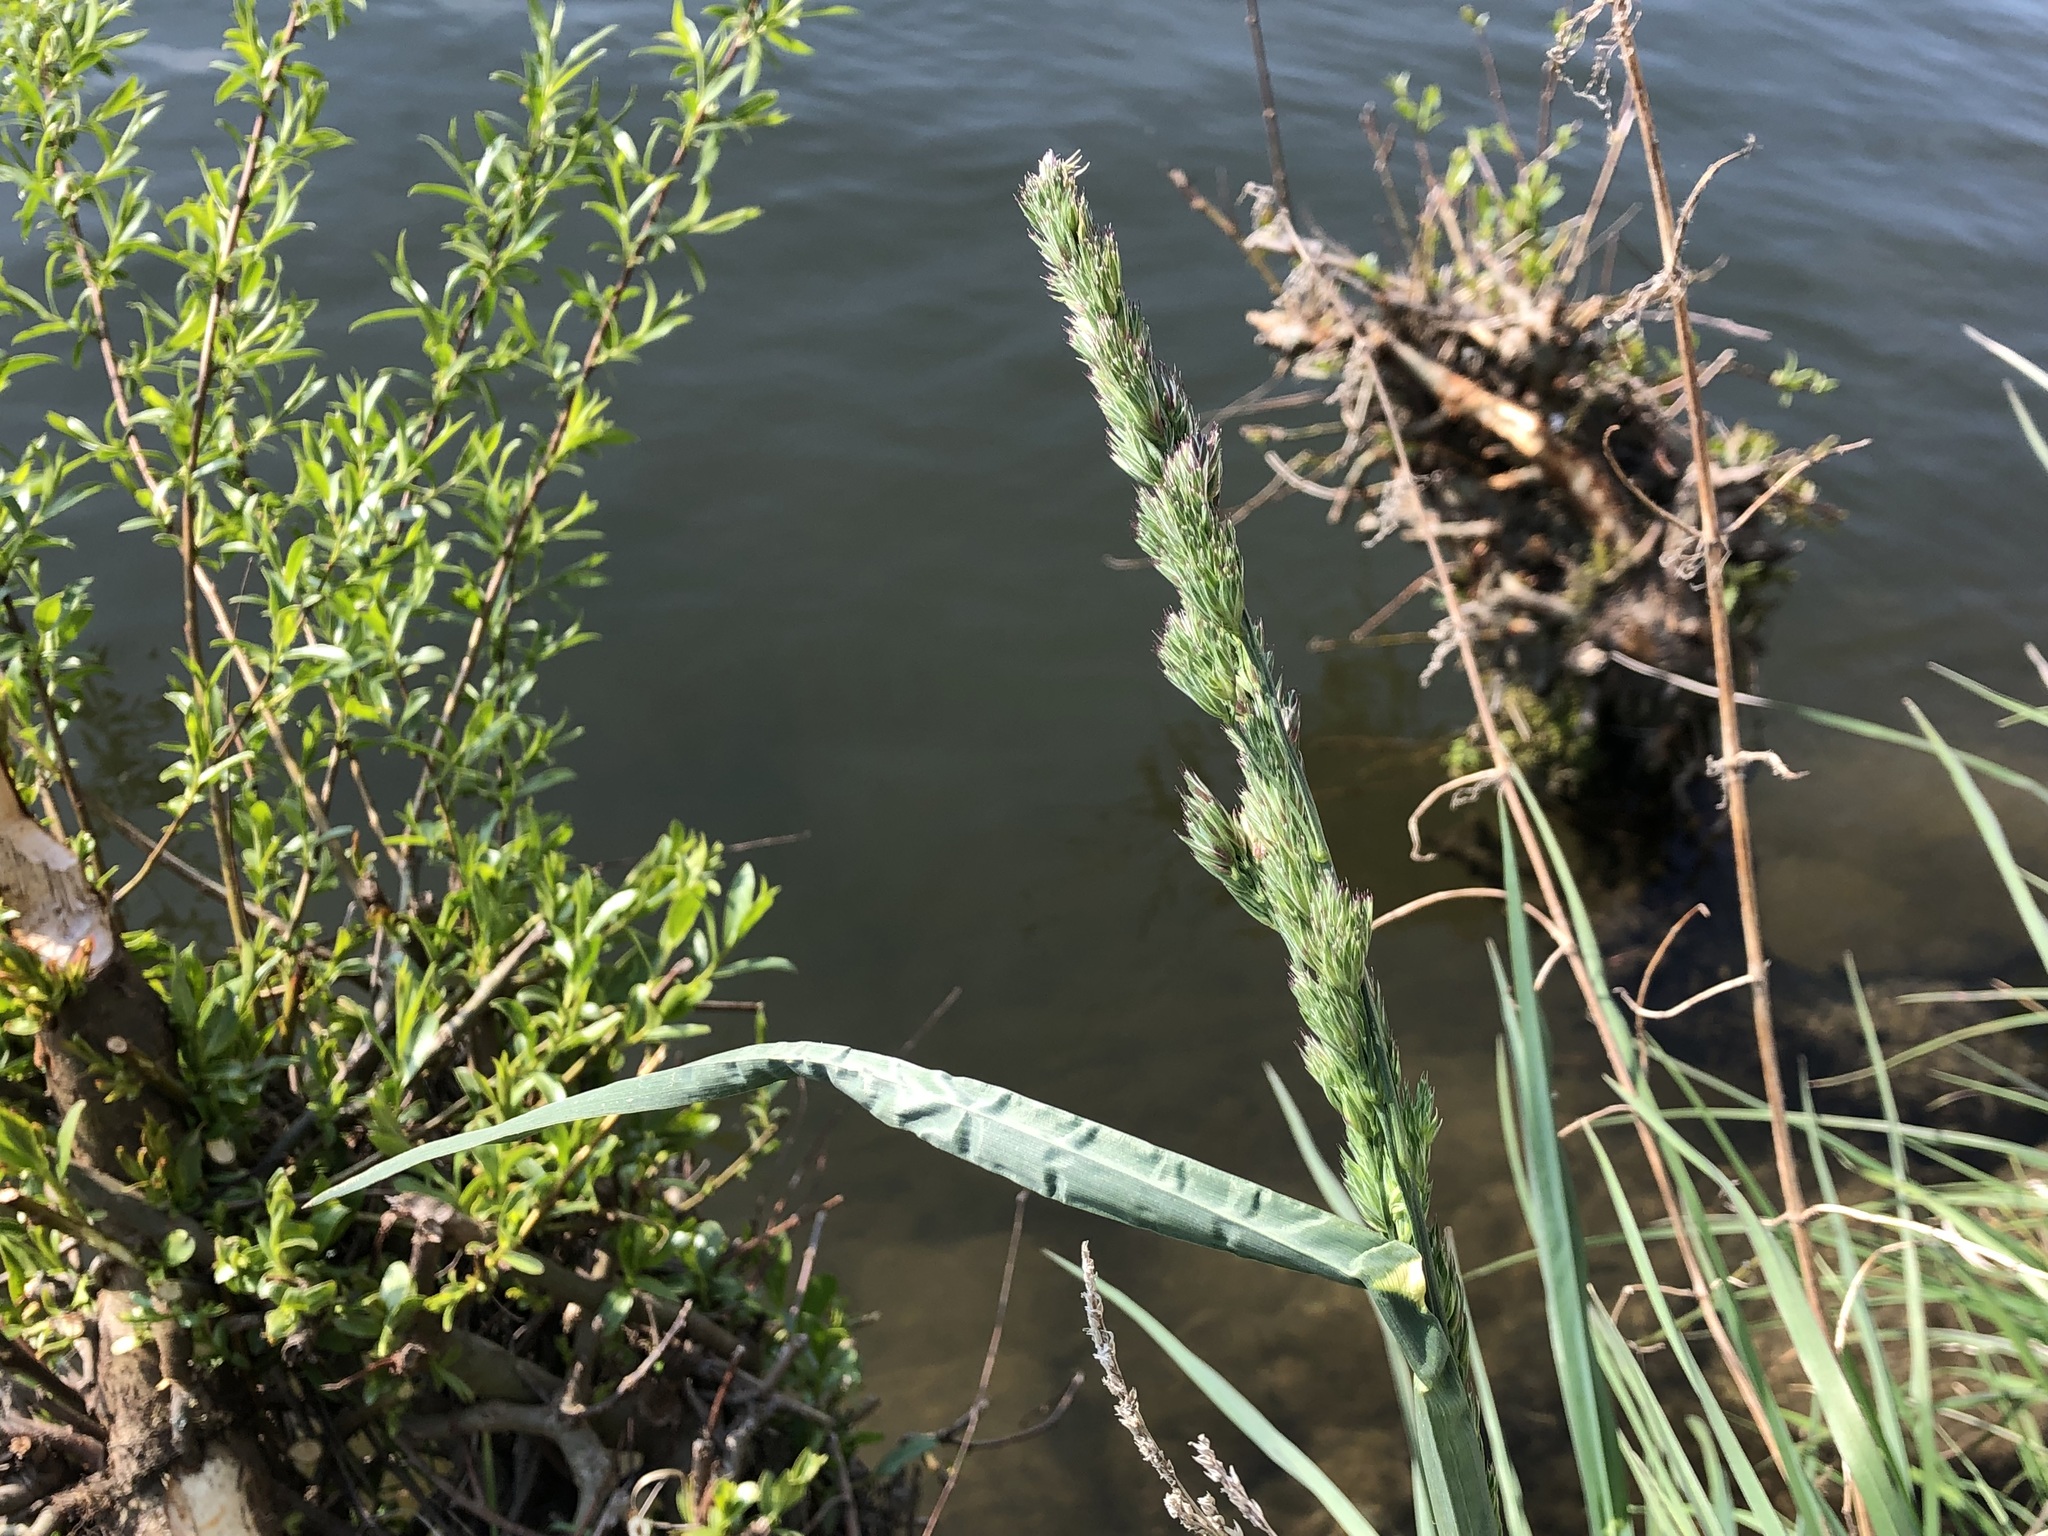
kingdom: Plantae
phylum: Tracheophyta
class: Liliopsida
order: Poales
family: Poaceae
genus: Dactylis
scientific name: Dactylis glomerata
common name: Orchardgrass
